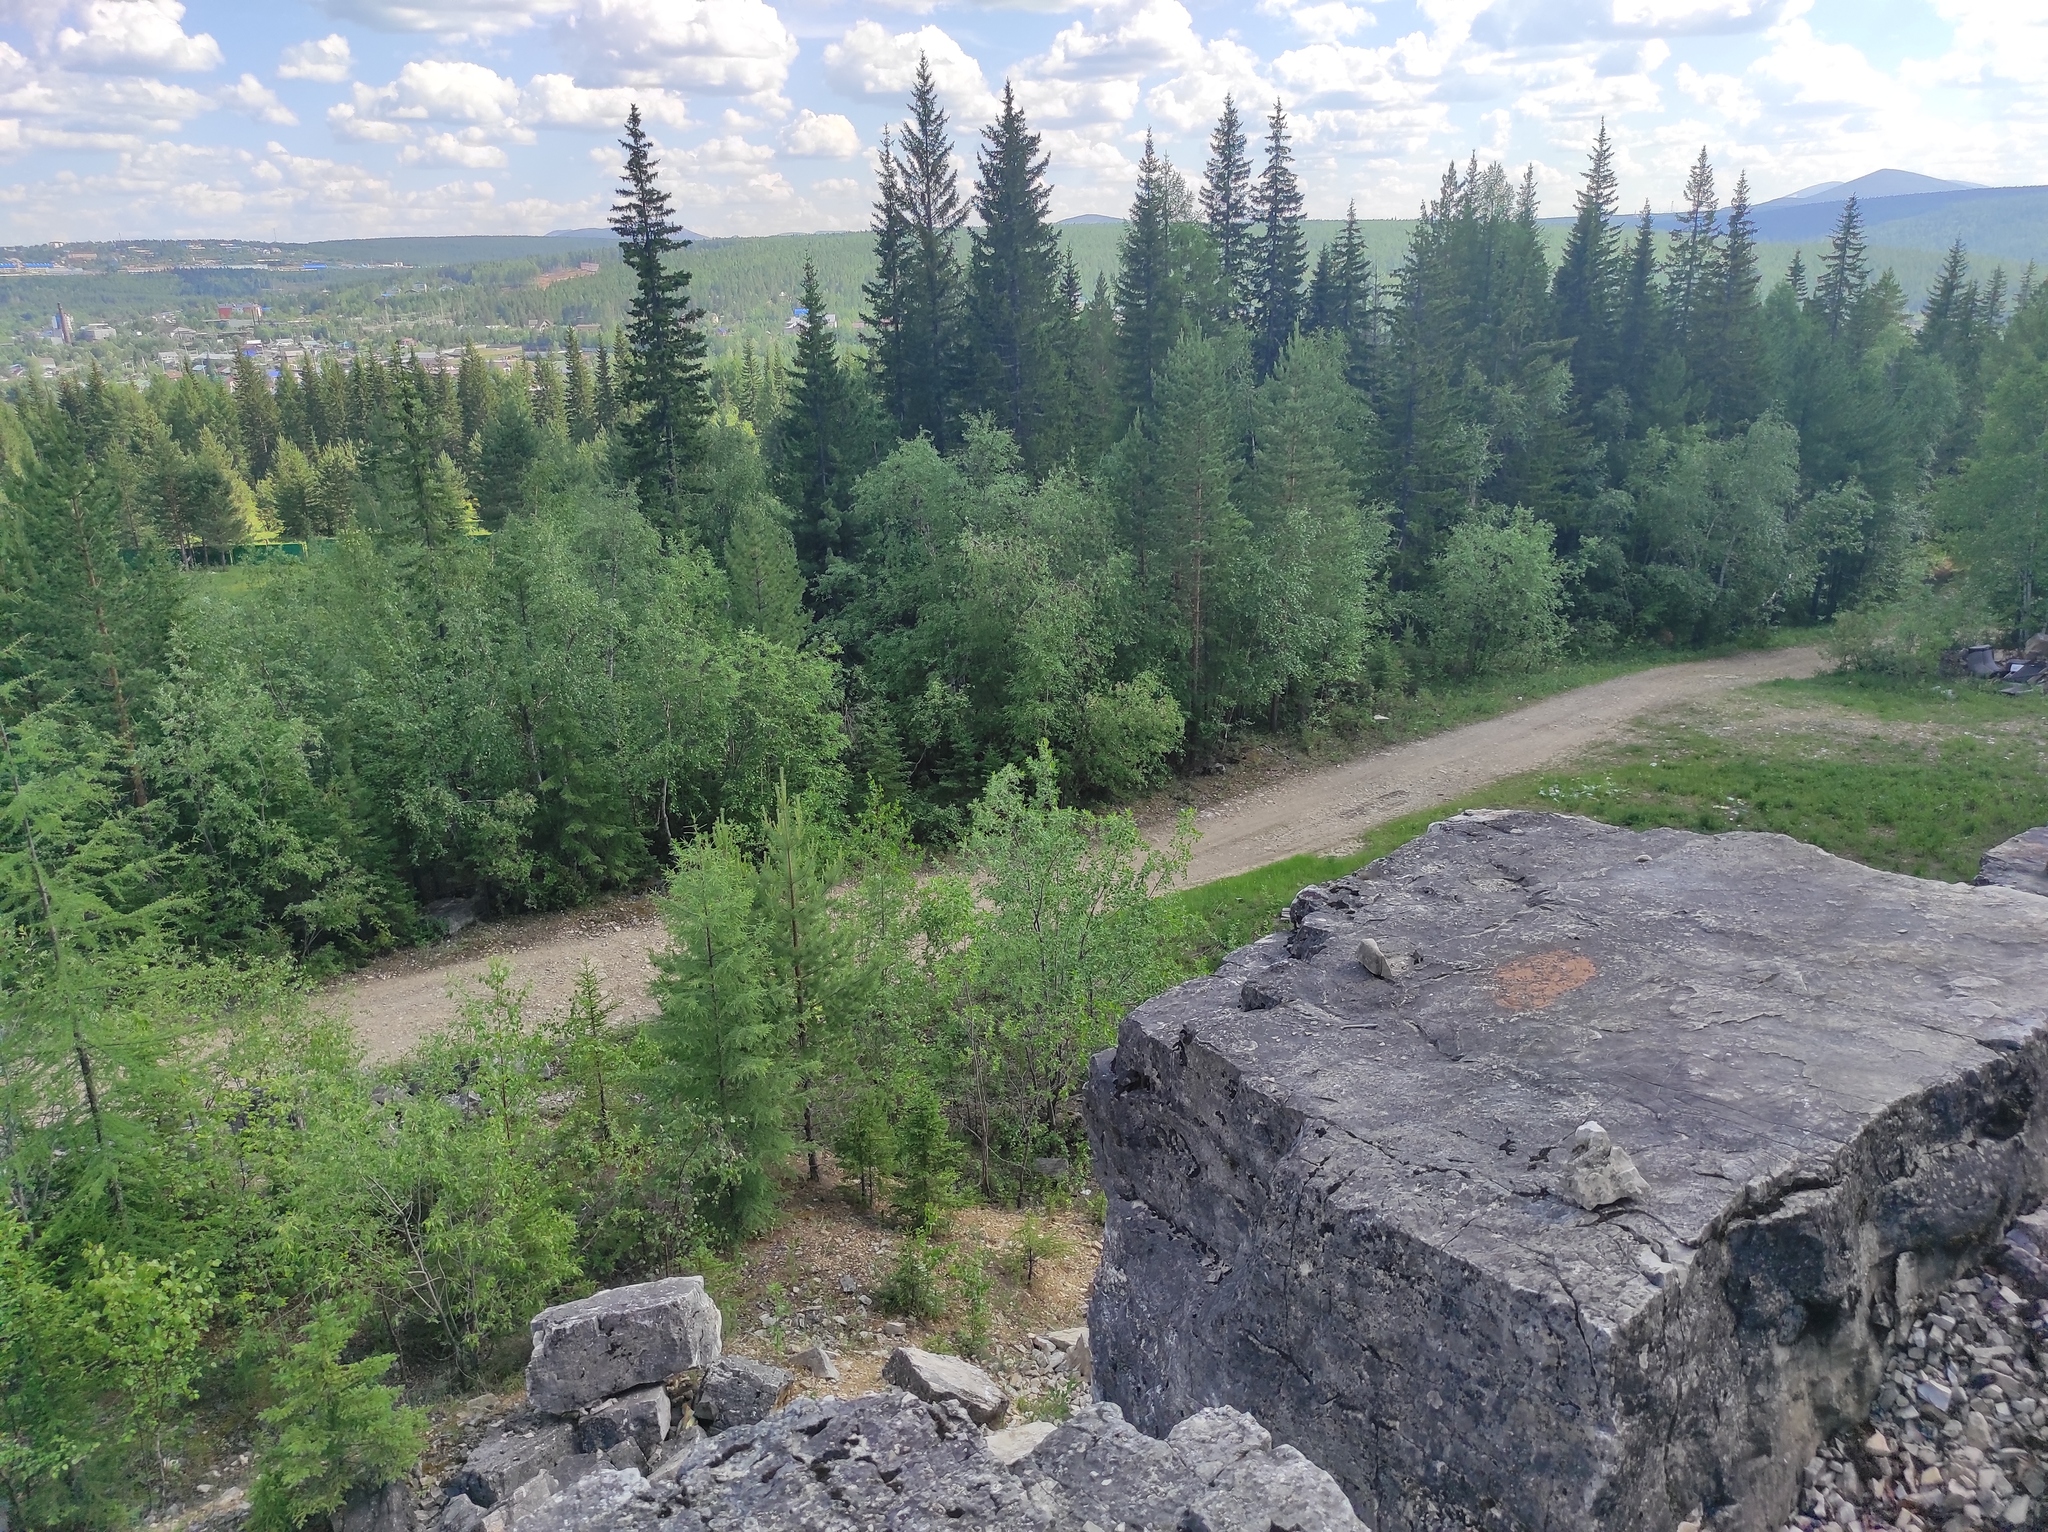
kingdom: Plantae
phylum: Tracheophyta
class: Pinopsida
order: Pinales
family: Pinaceae
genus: Larix
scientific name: Larix gmelinii
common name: Dahurian larch
